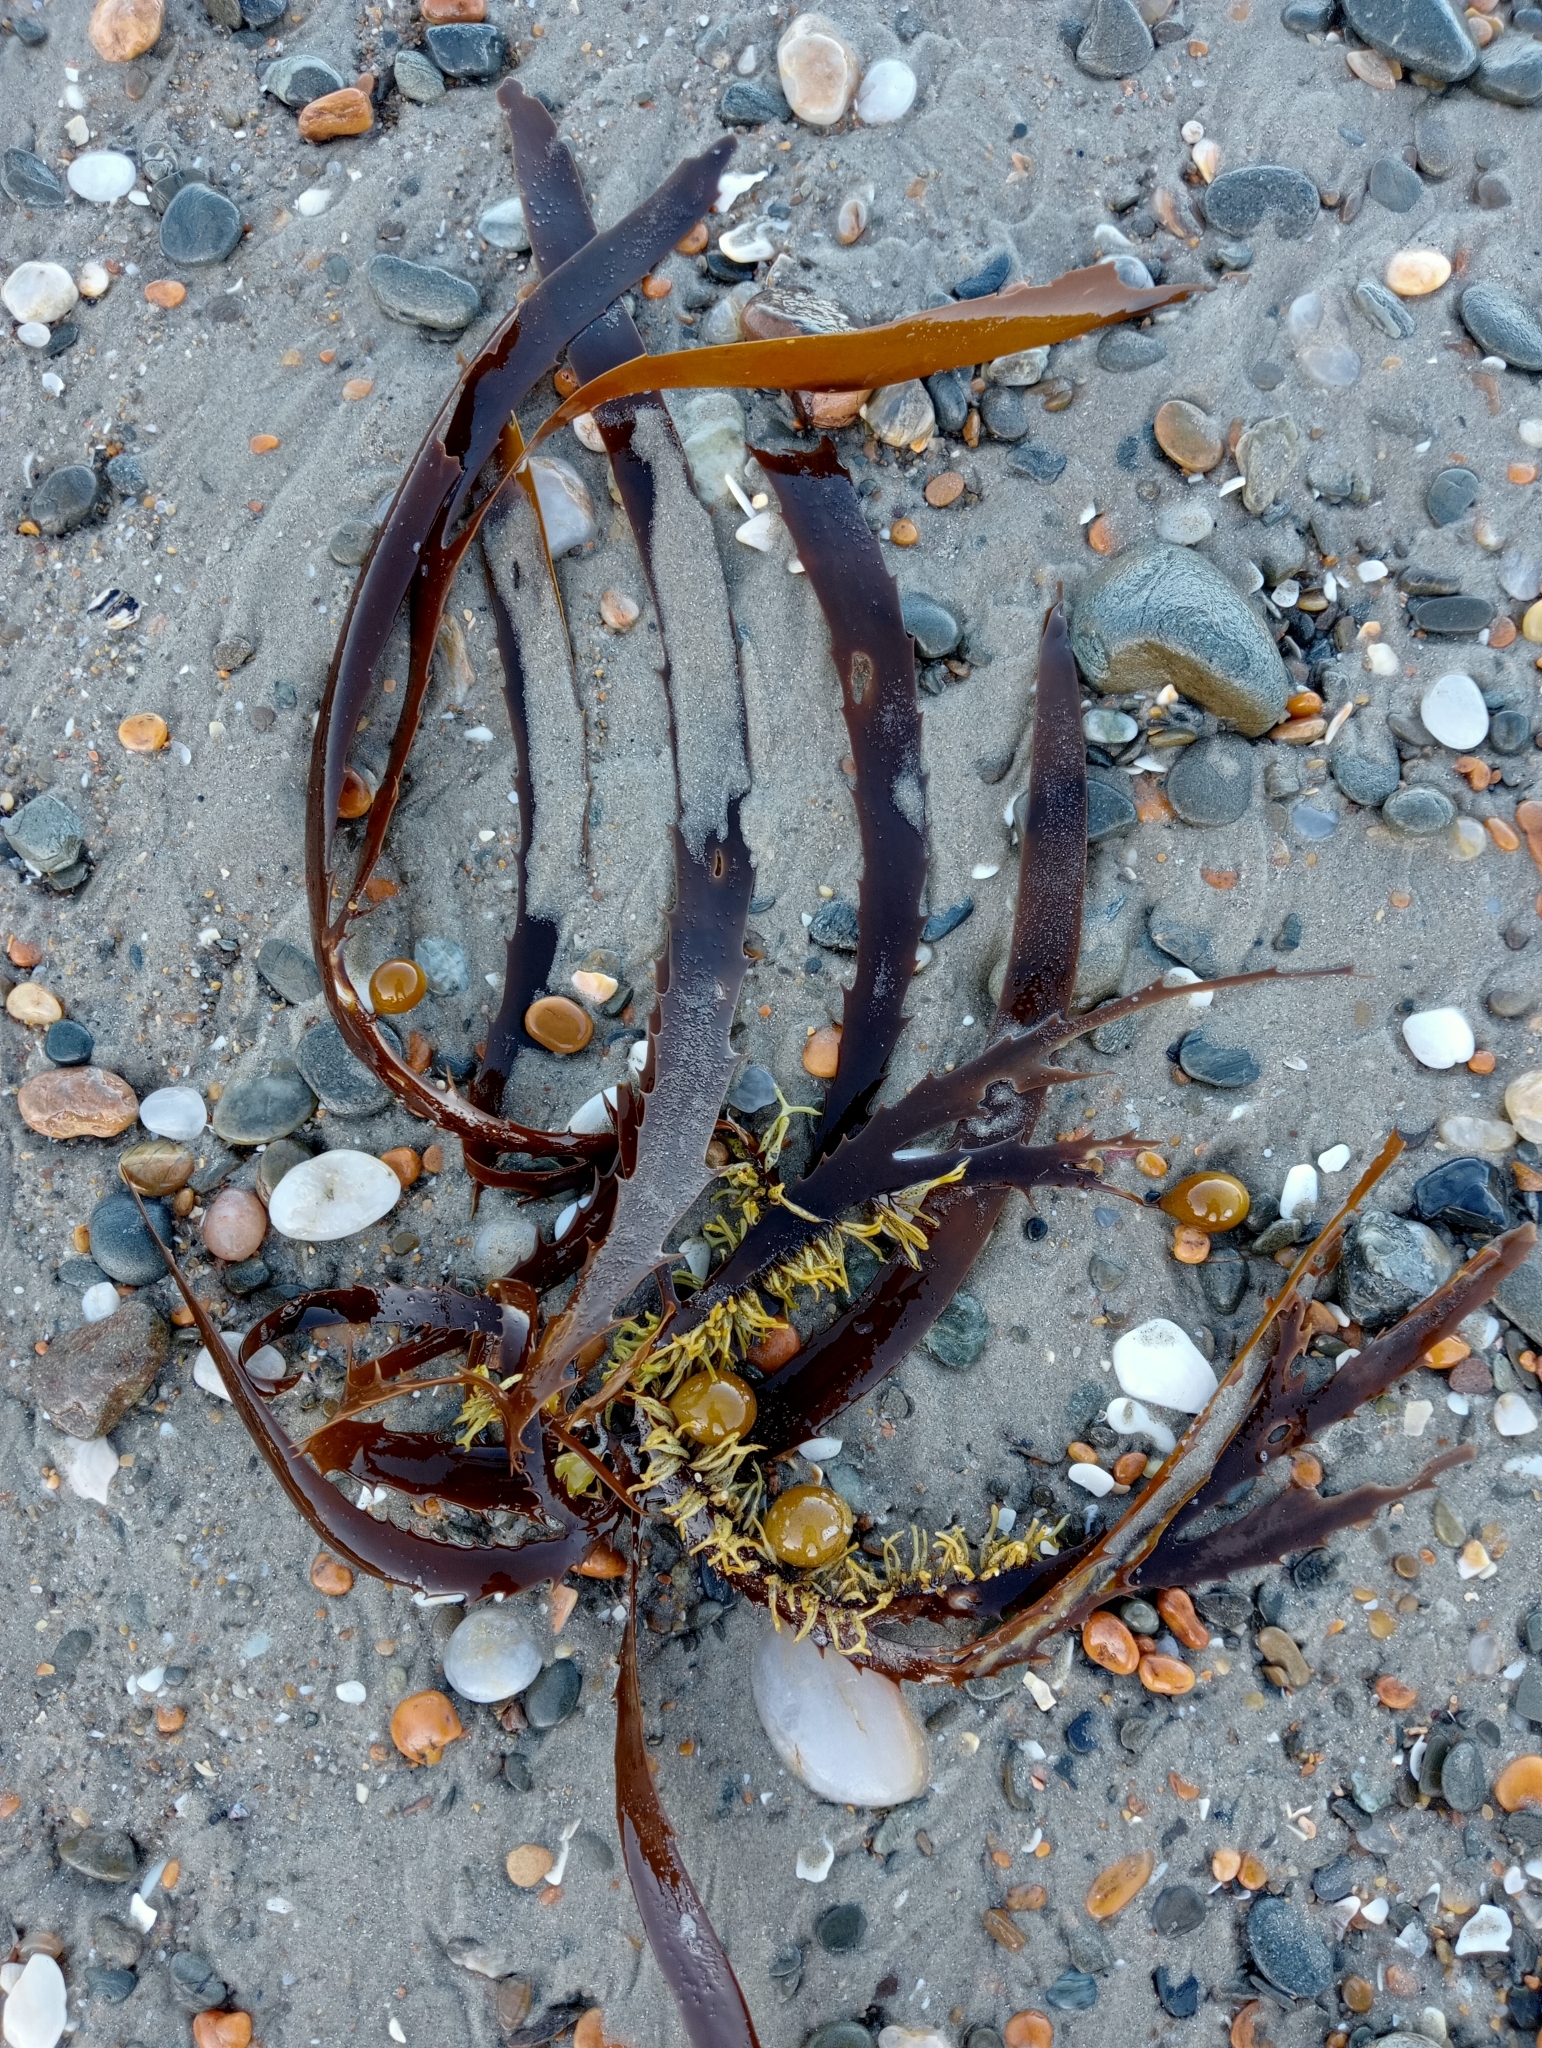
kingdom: Chromista
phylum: Ochrophyta
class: Phaeophyceae
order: Fucales
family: Seirococcaceae
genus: Marginariella
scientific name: Marginariella urvilliana
